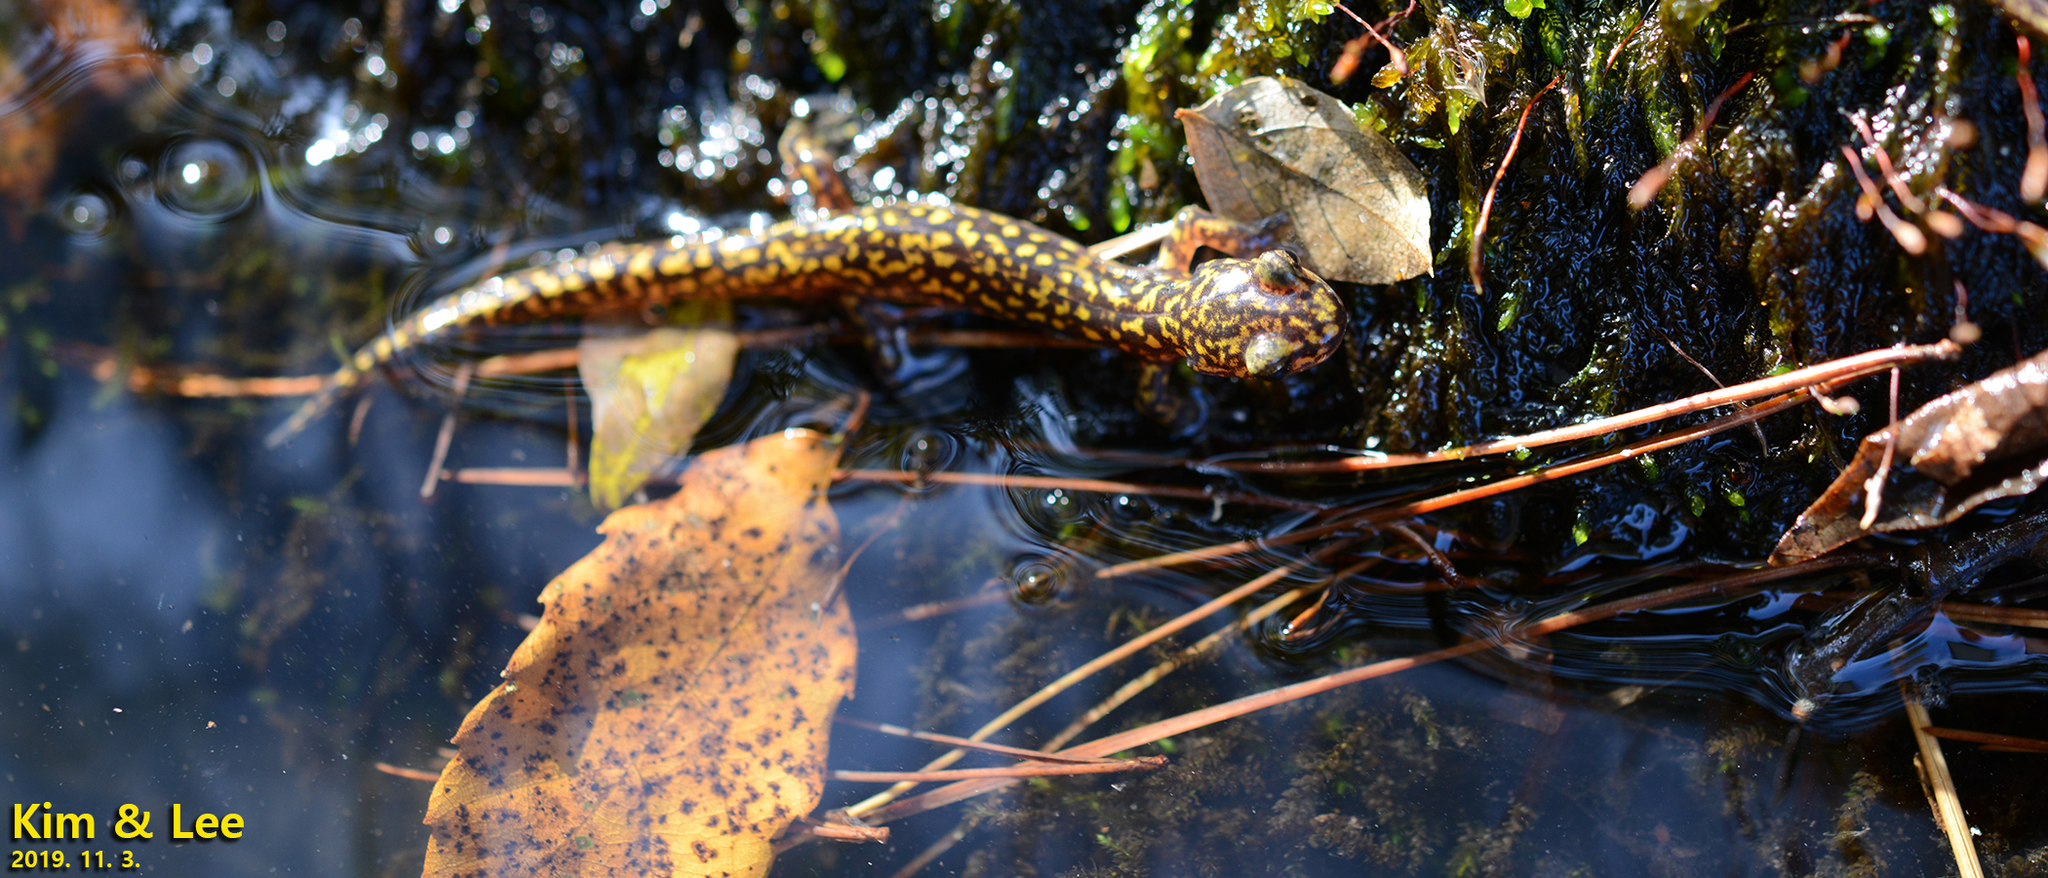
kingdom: Animalia
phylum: Chordata
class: Amphibia
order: Caudata
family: Hynobiidae
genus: Onychodactylus
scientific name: Onychodactylus koreanus
